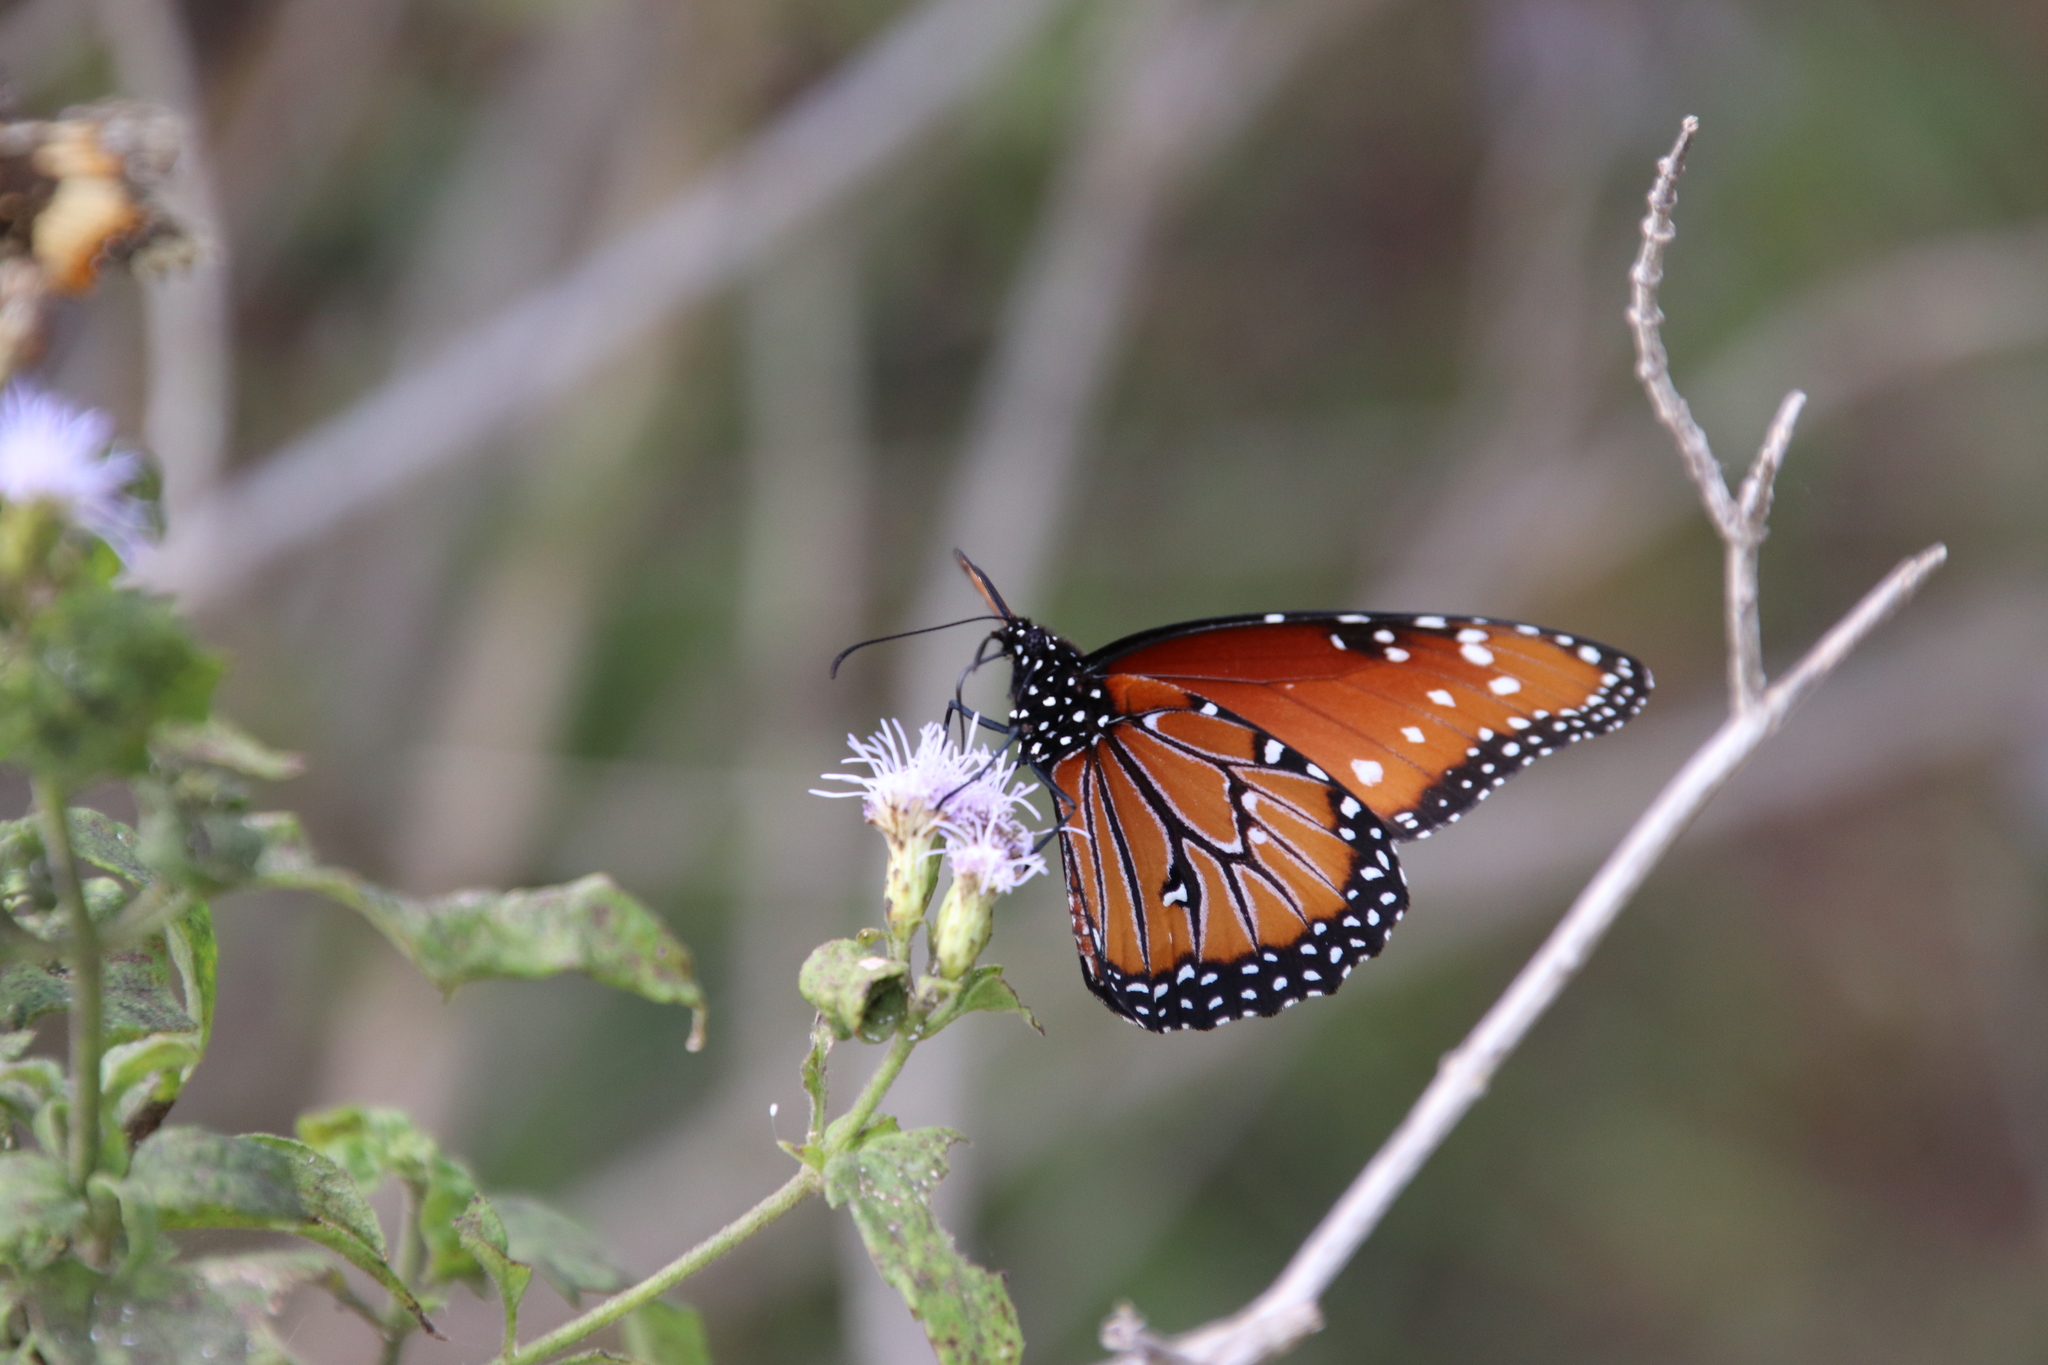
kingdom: Animalia
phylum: Arthropoda
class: Insecta
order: Lepidoptera
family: Nymphalidae
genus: Danaus
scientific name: Danaus gilippus
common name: Queen
